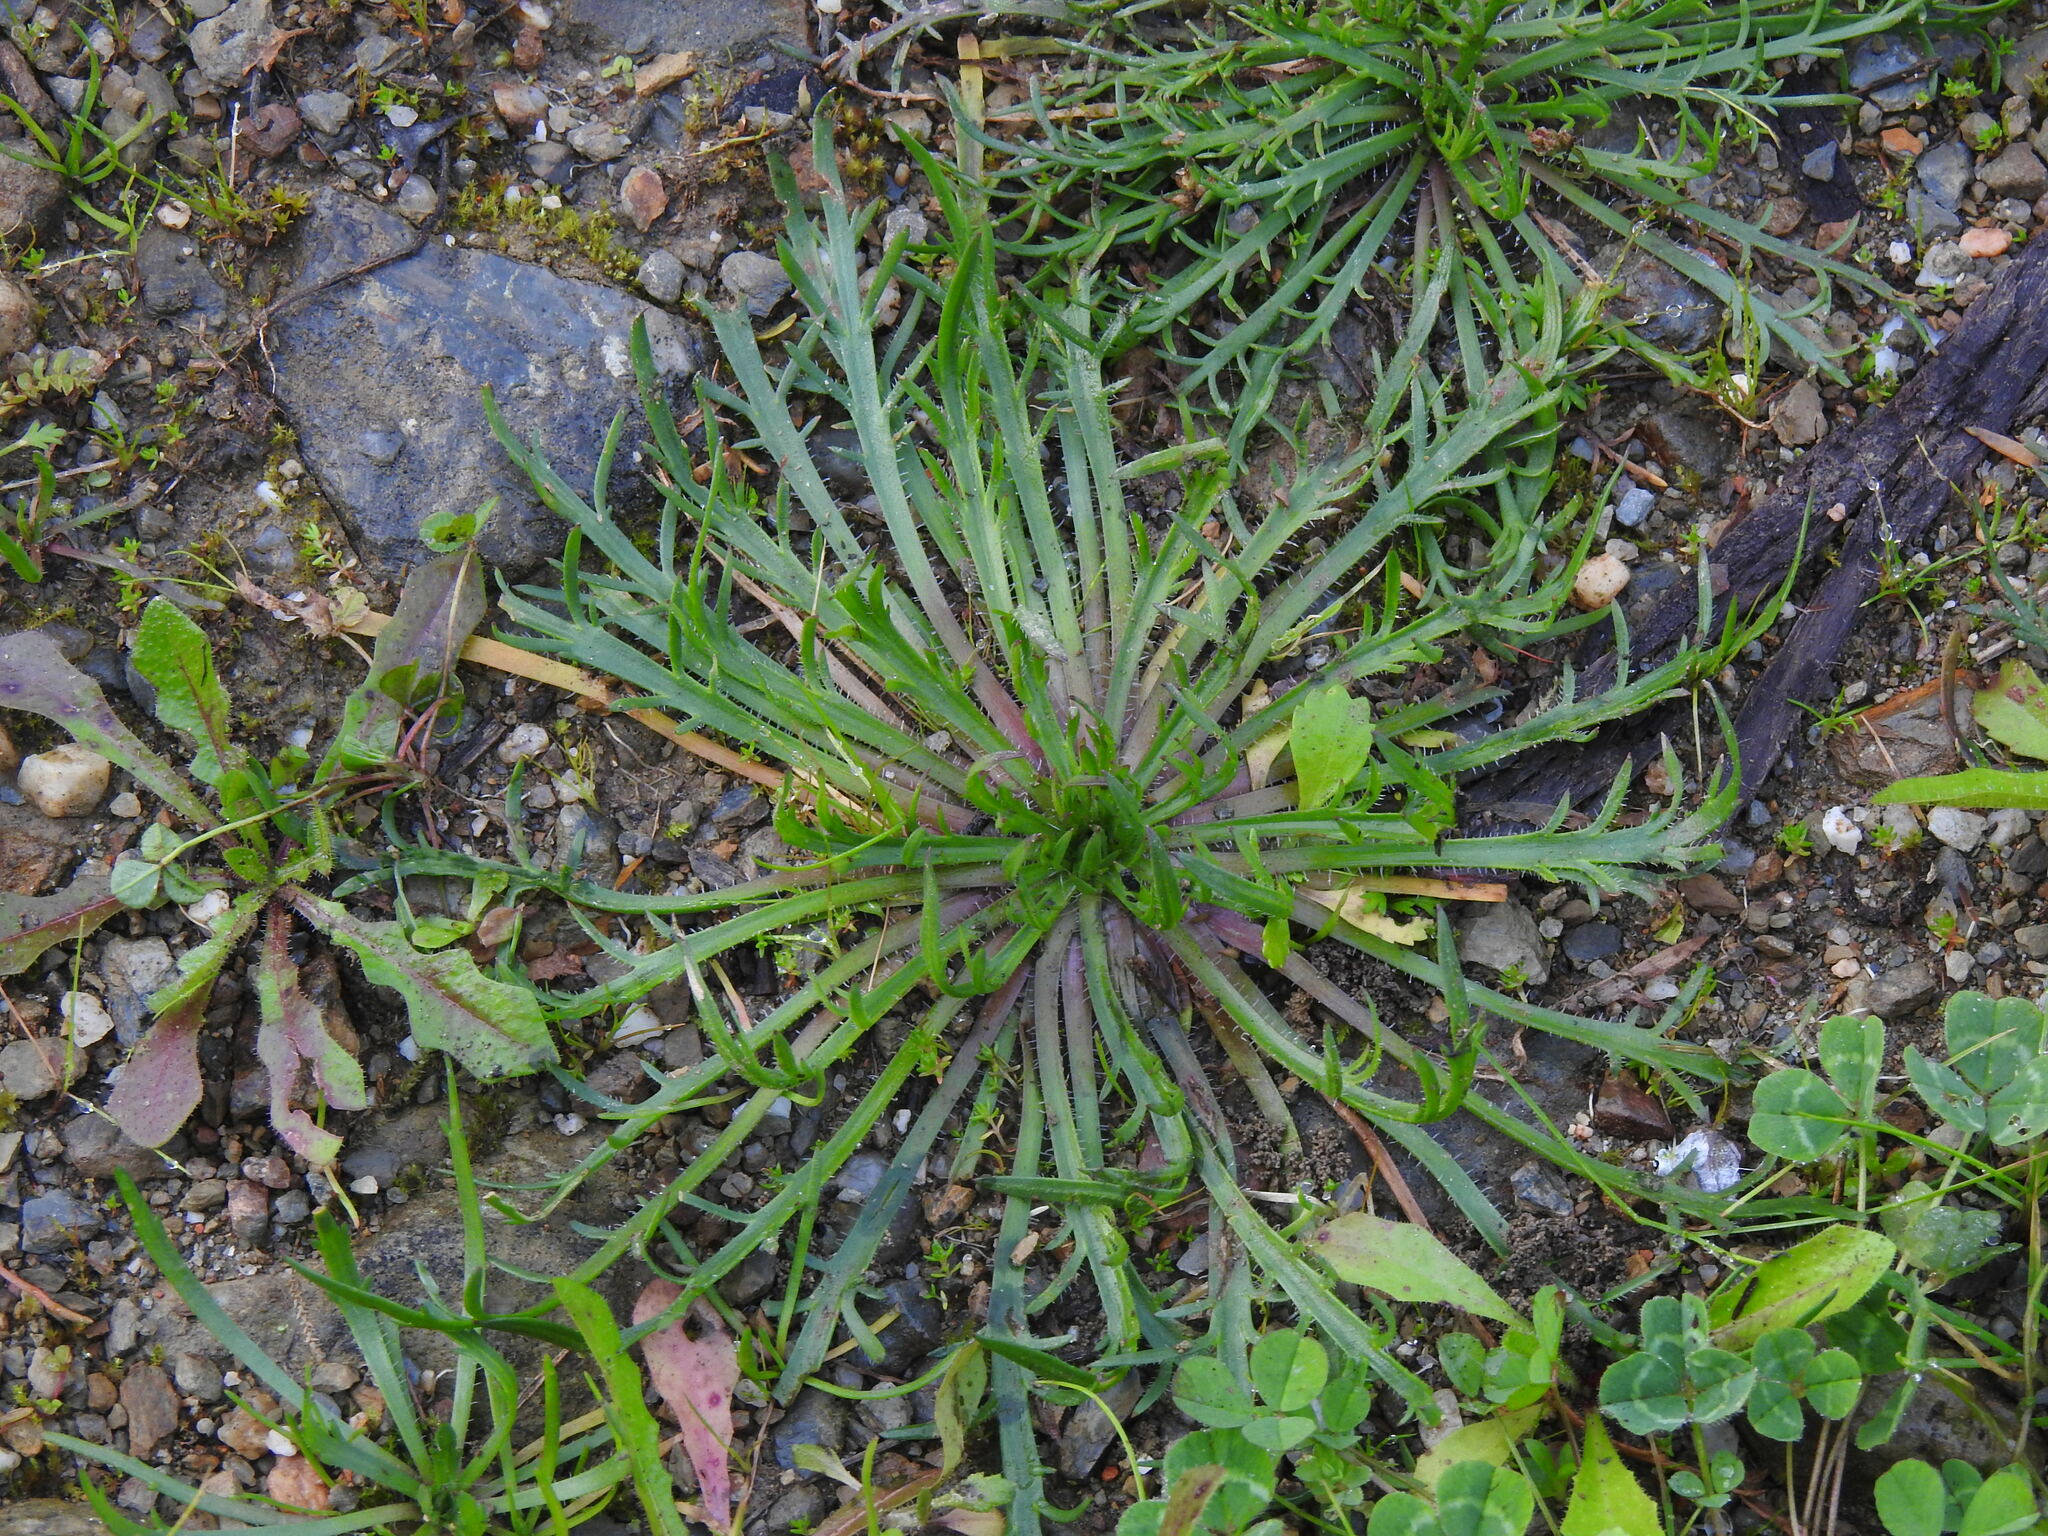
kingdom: Plantae
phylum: Tracheophyta
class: Magnoliopsida
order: Lamiales
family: Plantaginaceae
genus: Plantago
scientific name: Plantago coronopus
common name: Buck's-horn plantain
